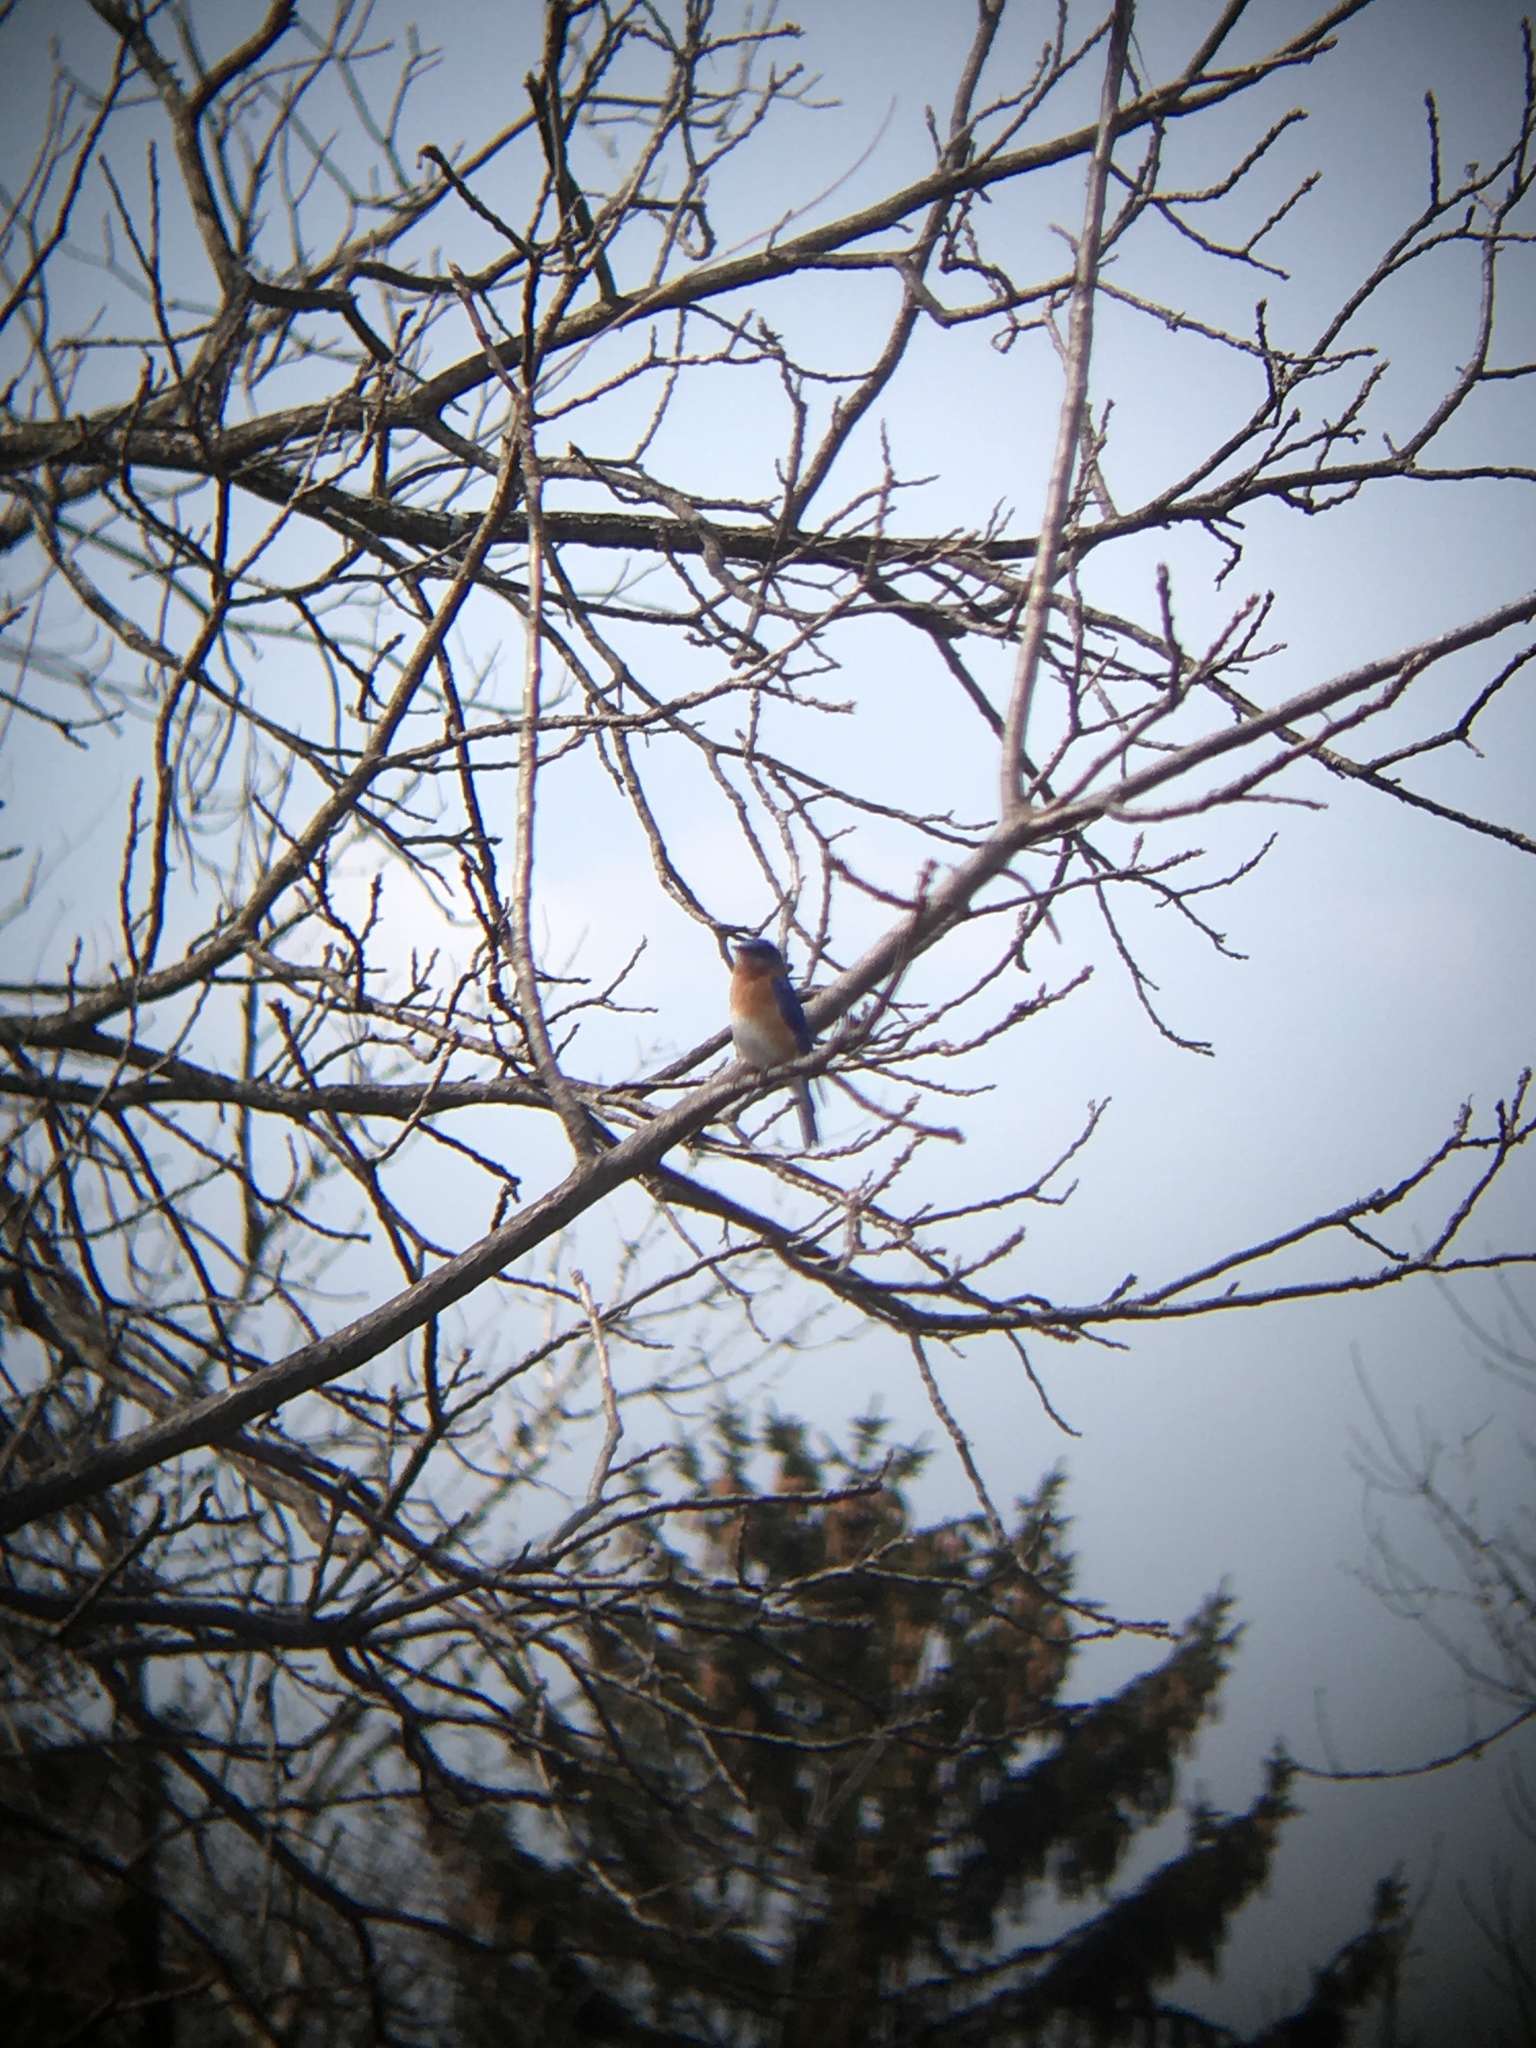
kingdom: Animalia
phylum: Chordata
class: Aves
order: Passeriformes
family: Turdidae
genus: Sialia
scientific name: Sialia sialis
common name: Eastern bluebird
